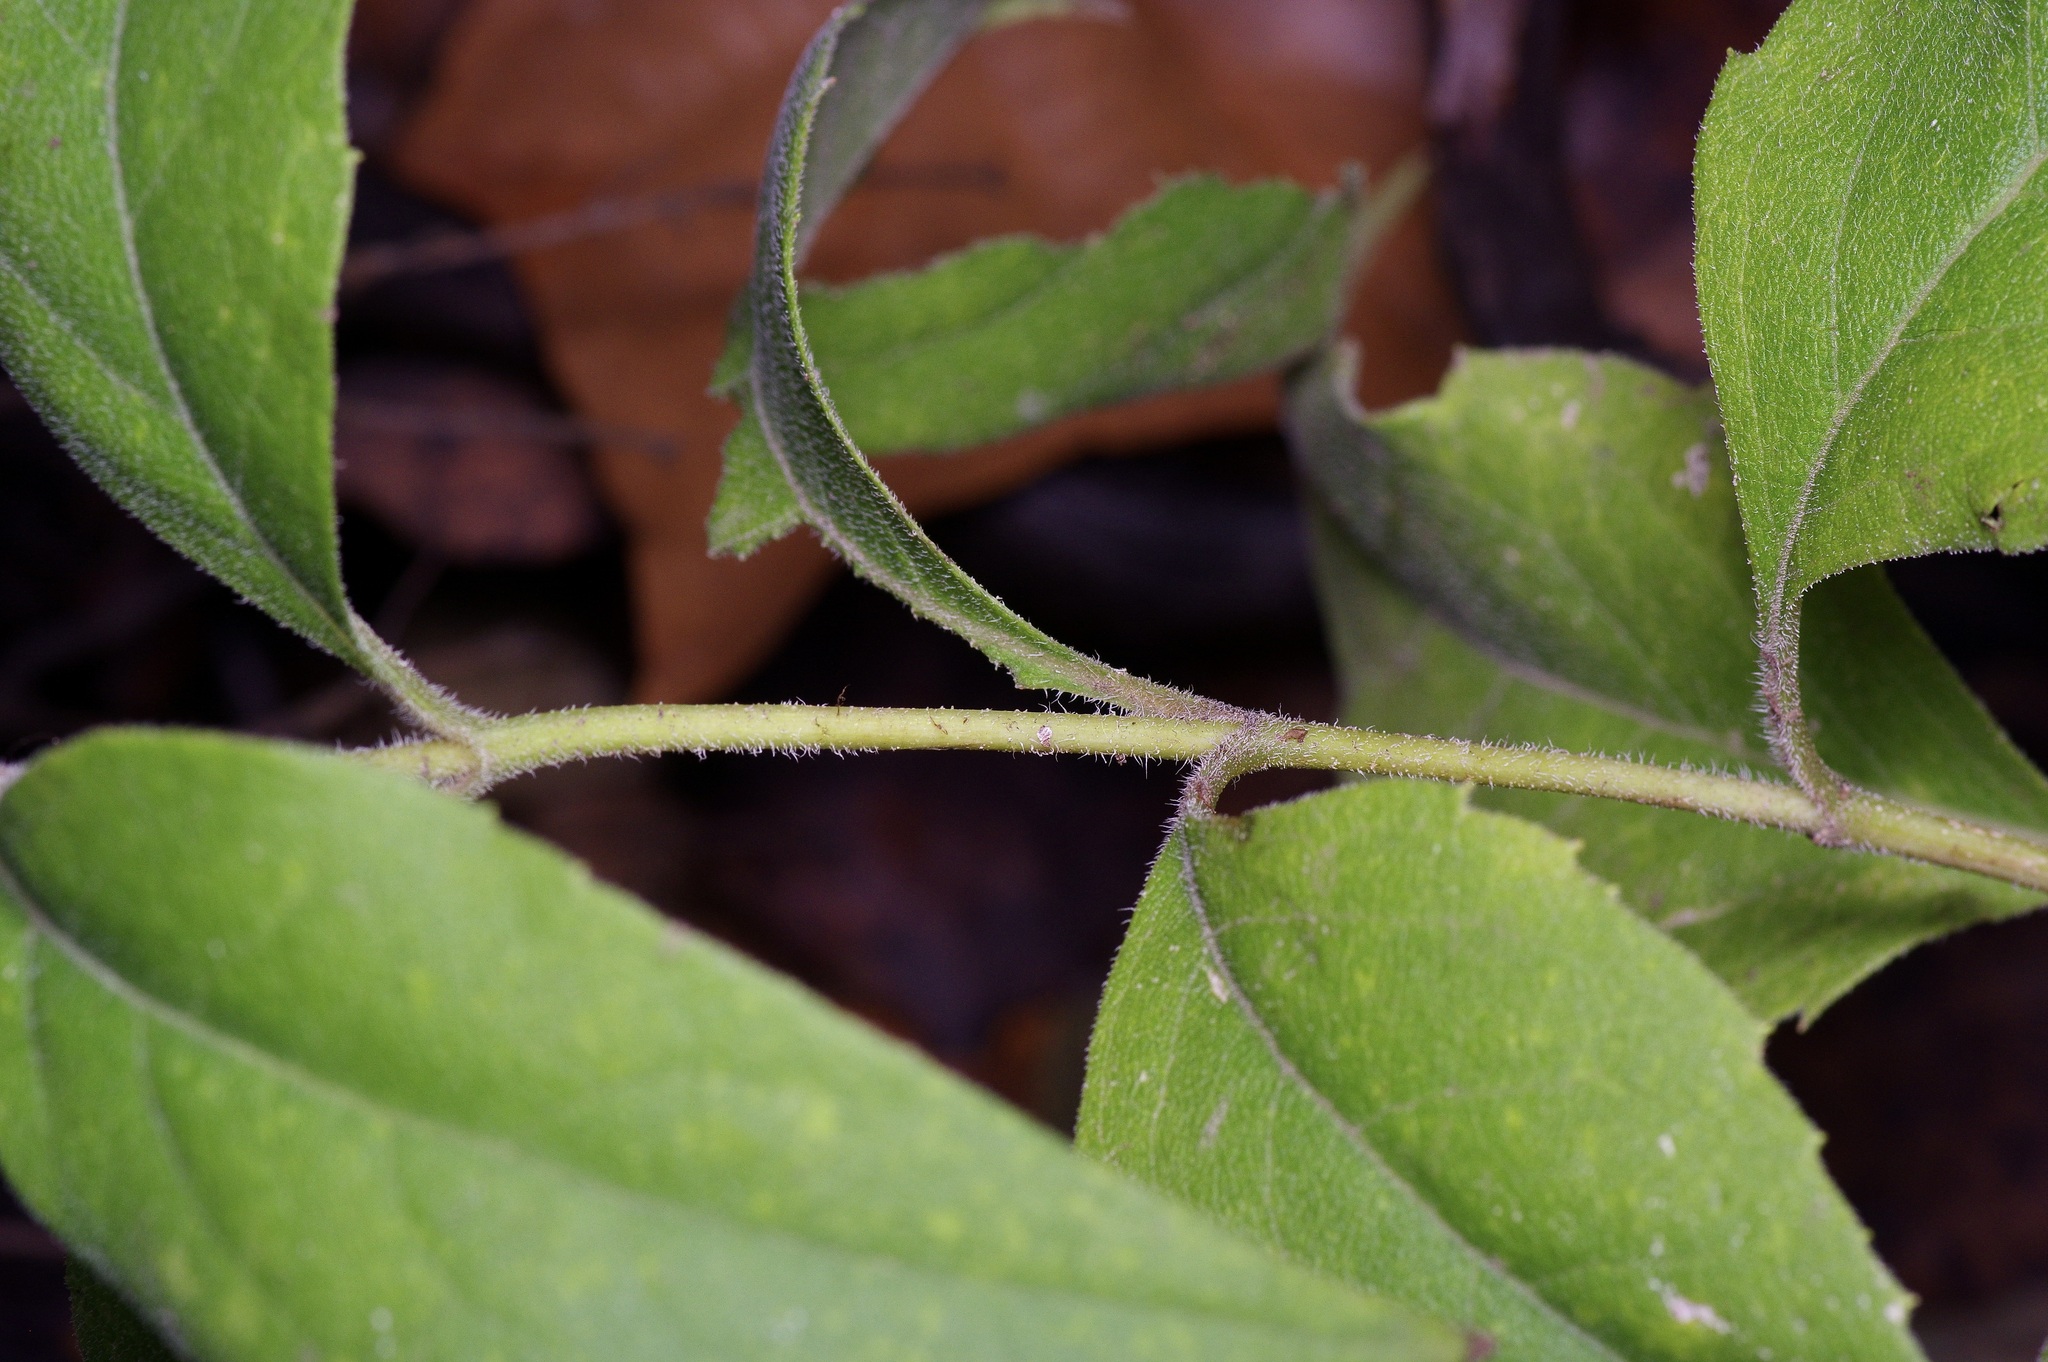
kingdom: Plantae
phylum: Tracheophyta
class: Magnoliopsida
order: Asterales
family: Asteraceae
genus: Silphium
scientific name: Silphium asteriscus
